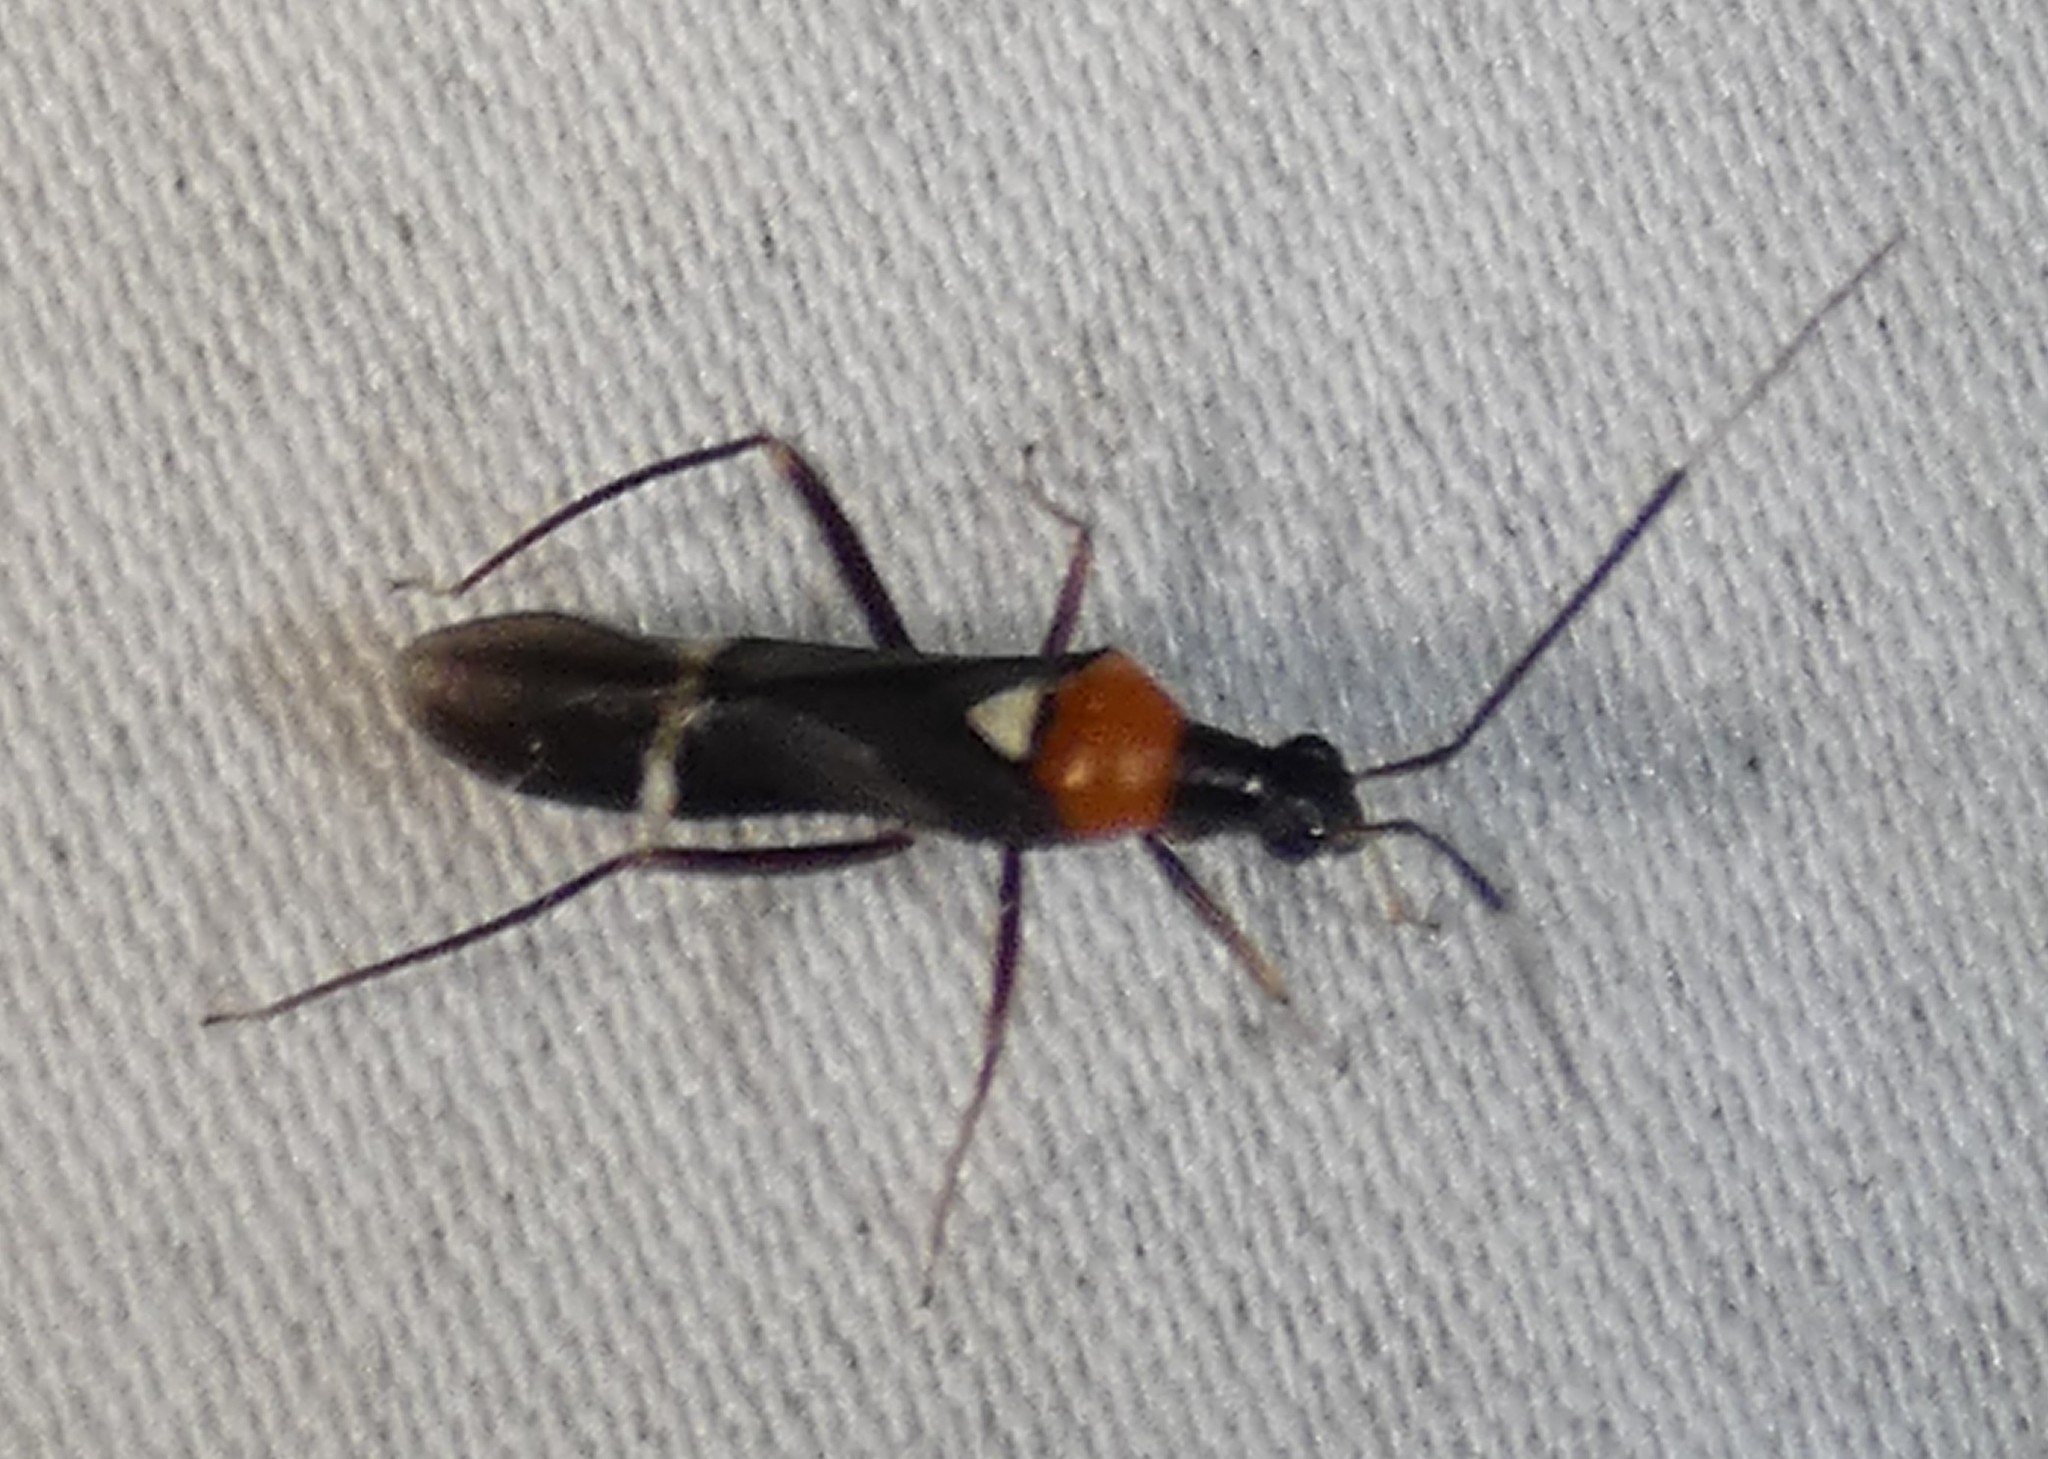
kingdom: Animalia
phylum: Arthropoda
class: Insecta
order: Hemiptera
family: Miridae
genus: Pseudoxenetus
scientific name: Pseudoxenetus regalis
